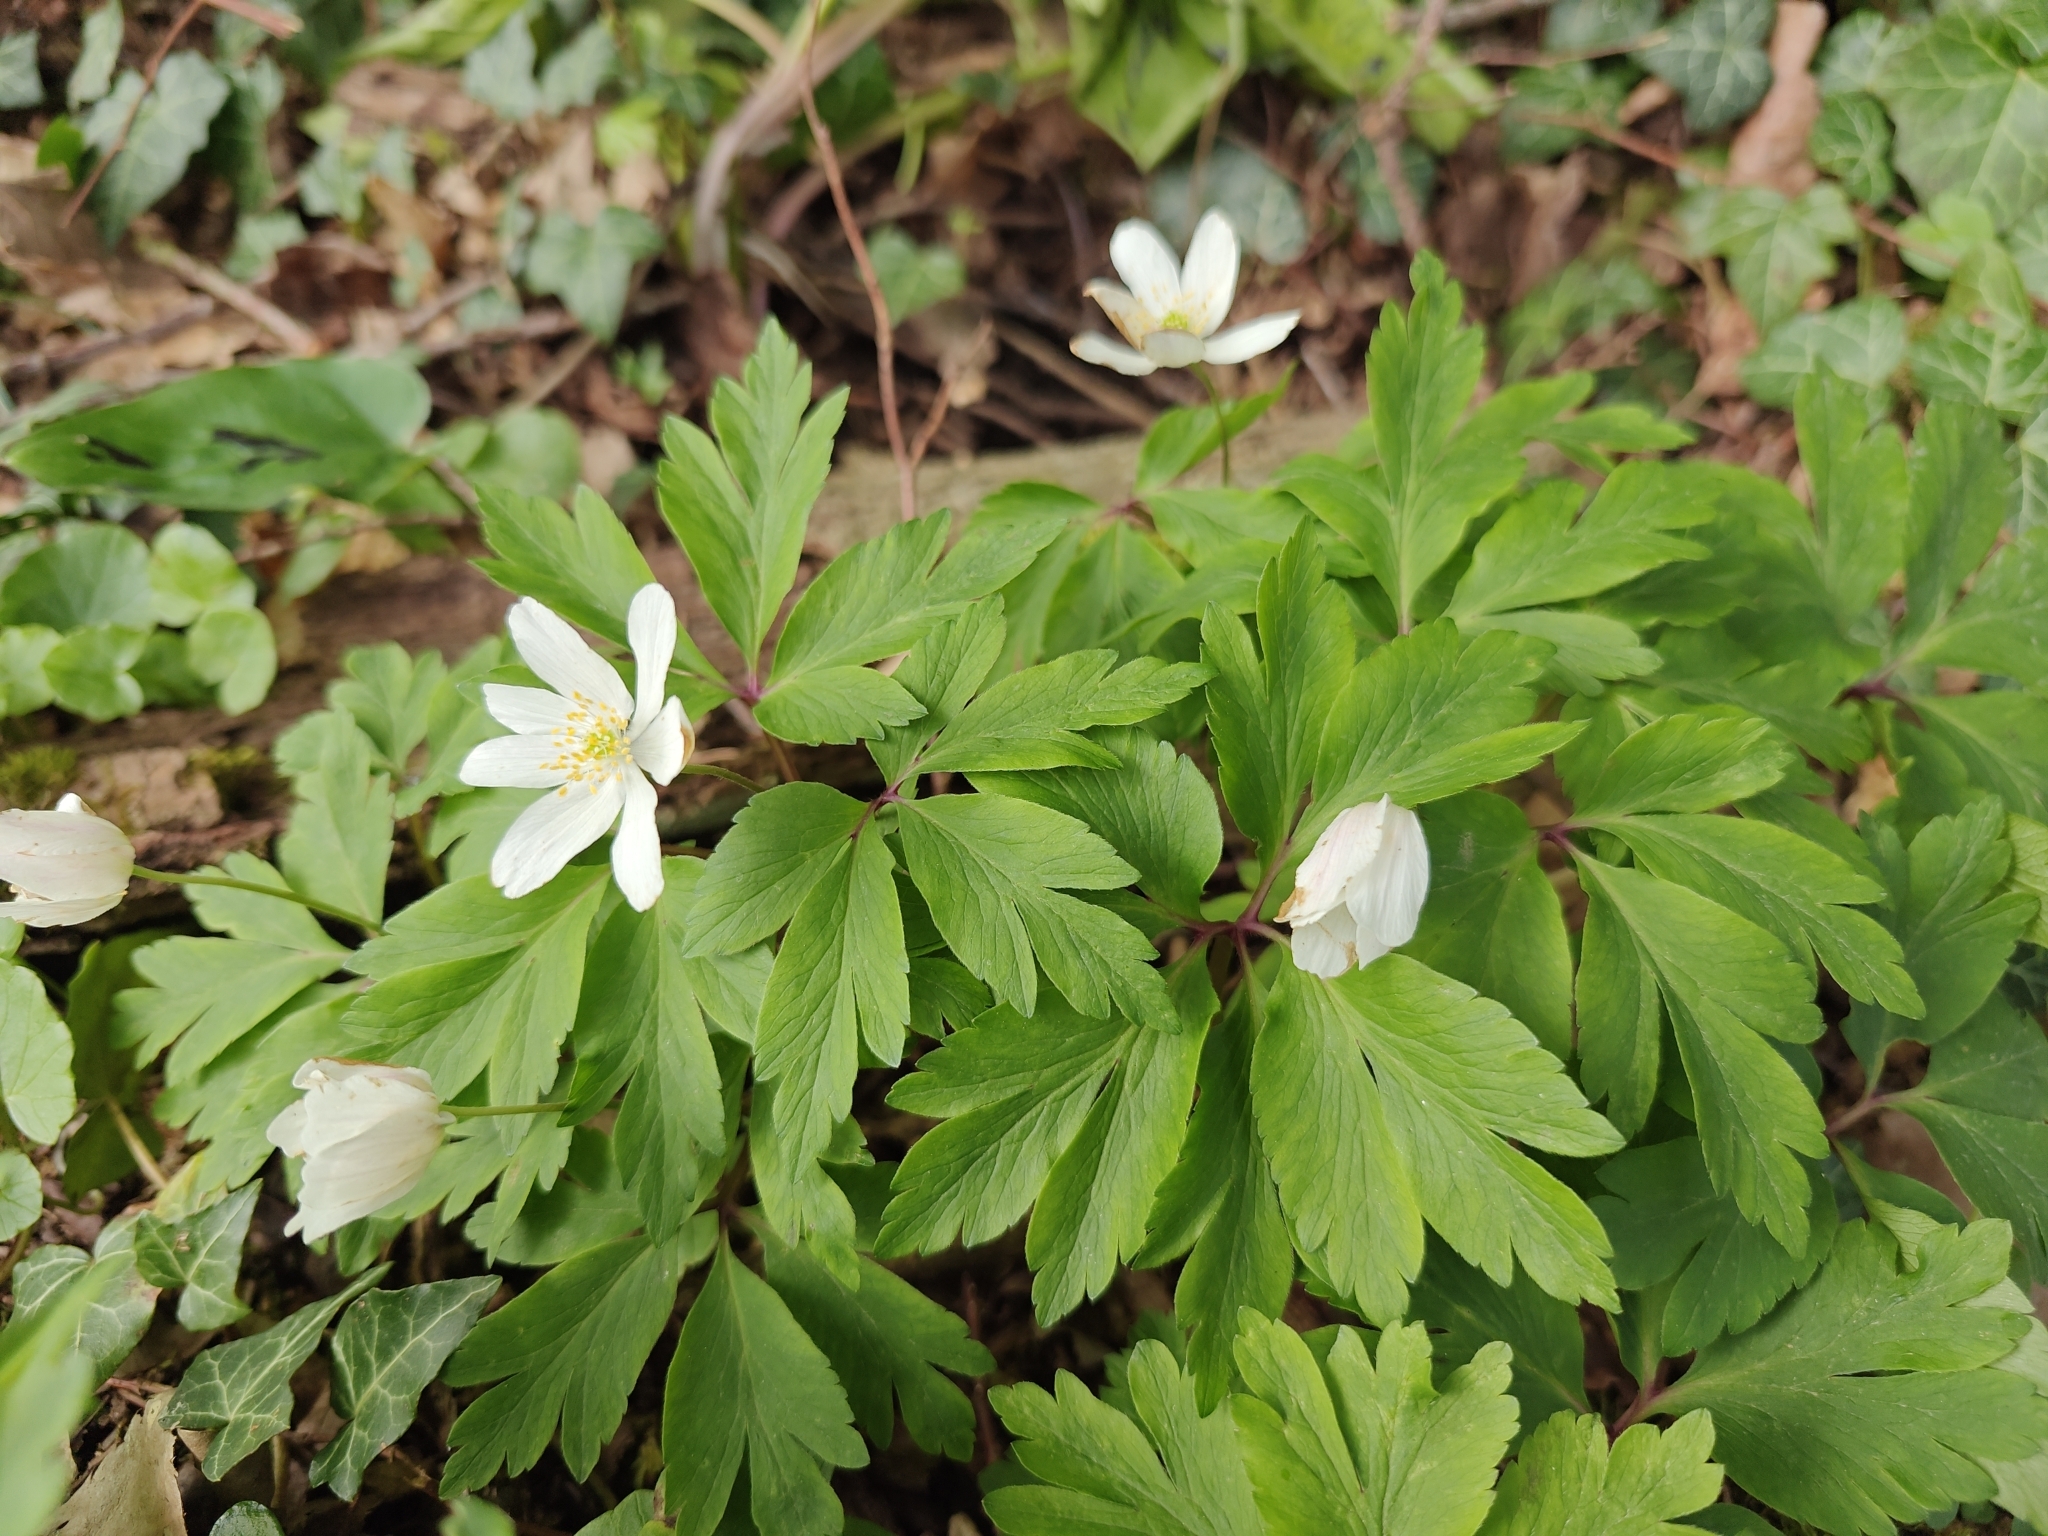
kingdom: Plantae
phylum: Tracheophyta
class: Magnoliopsida
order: Ranunculales
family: Ranunculaceae
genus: Anemone
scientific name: Anemone nemorosa
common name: Wood anemone
